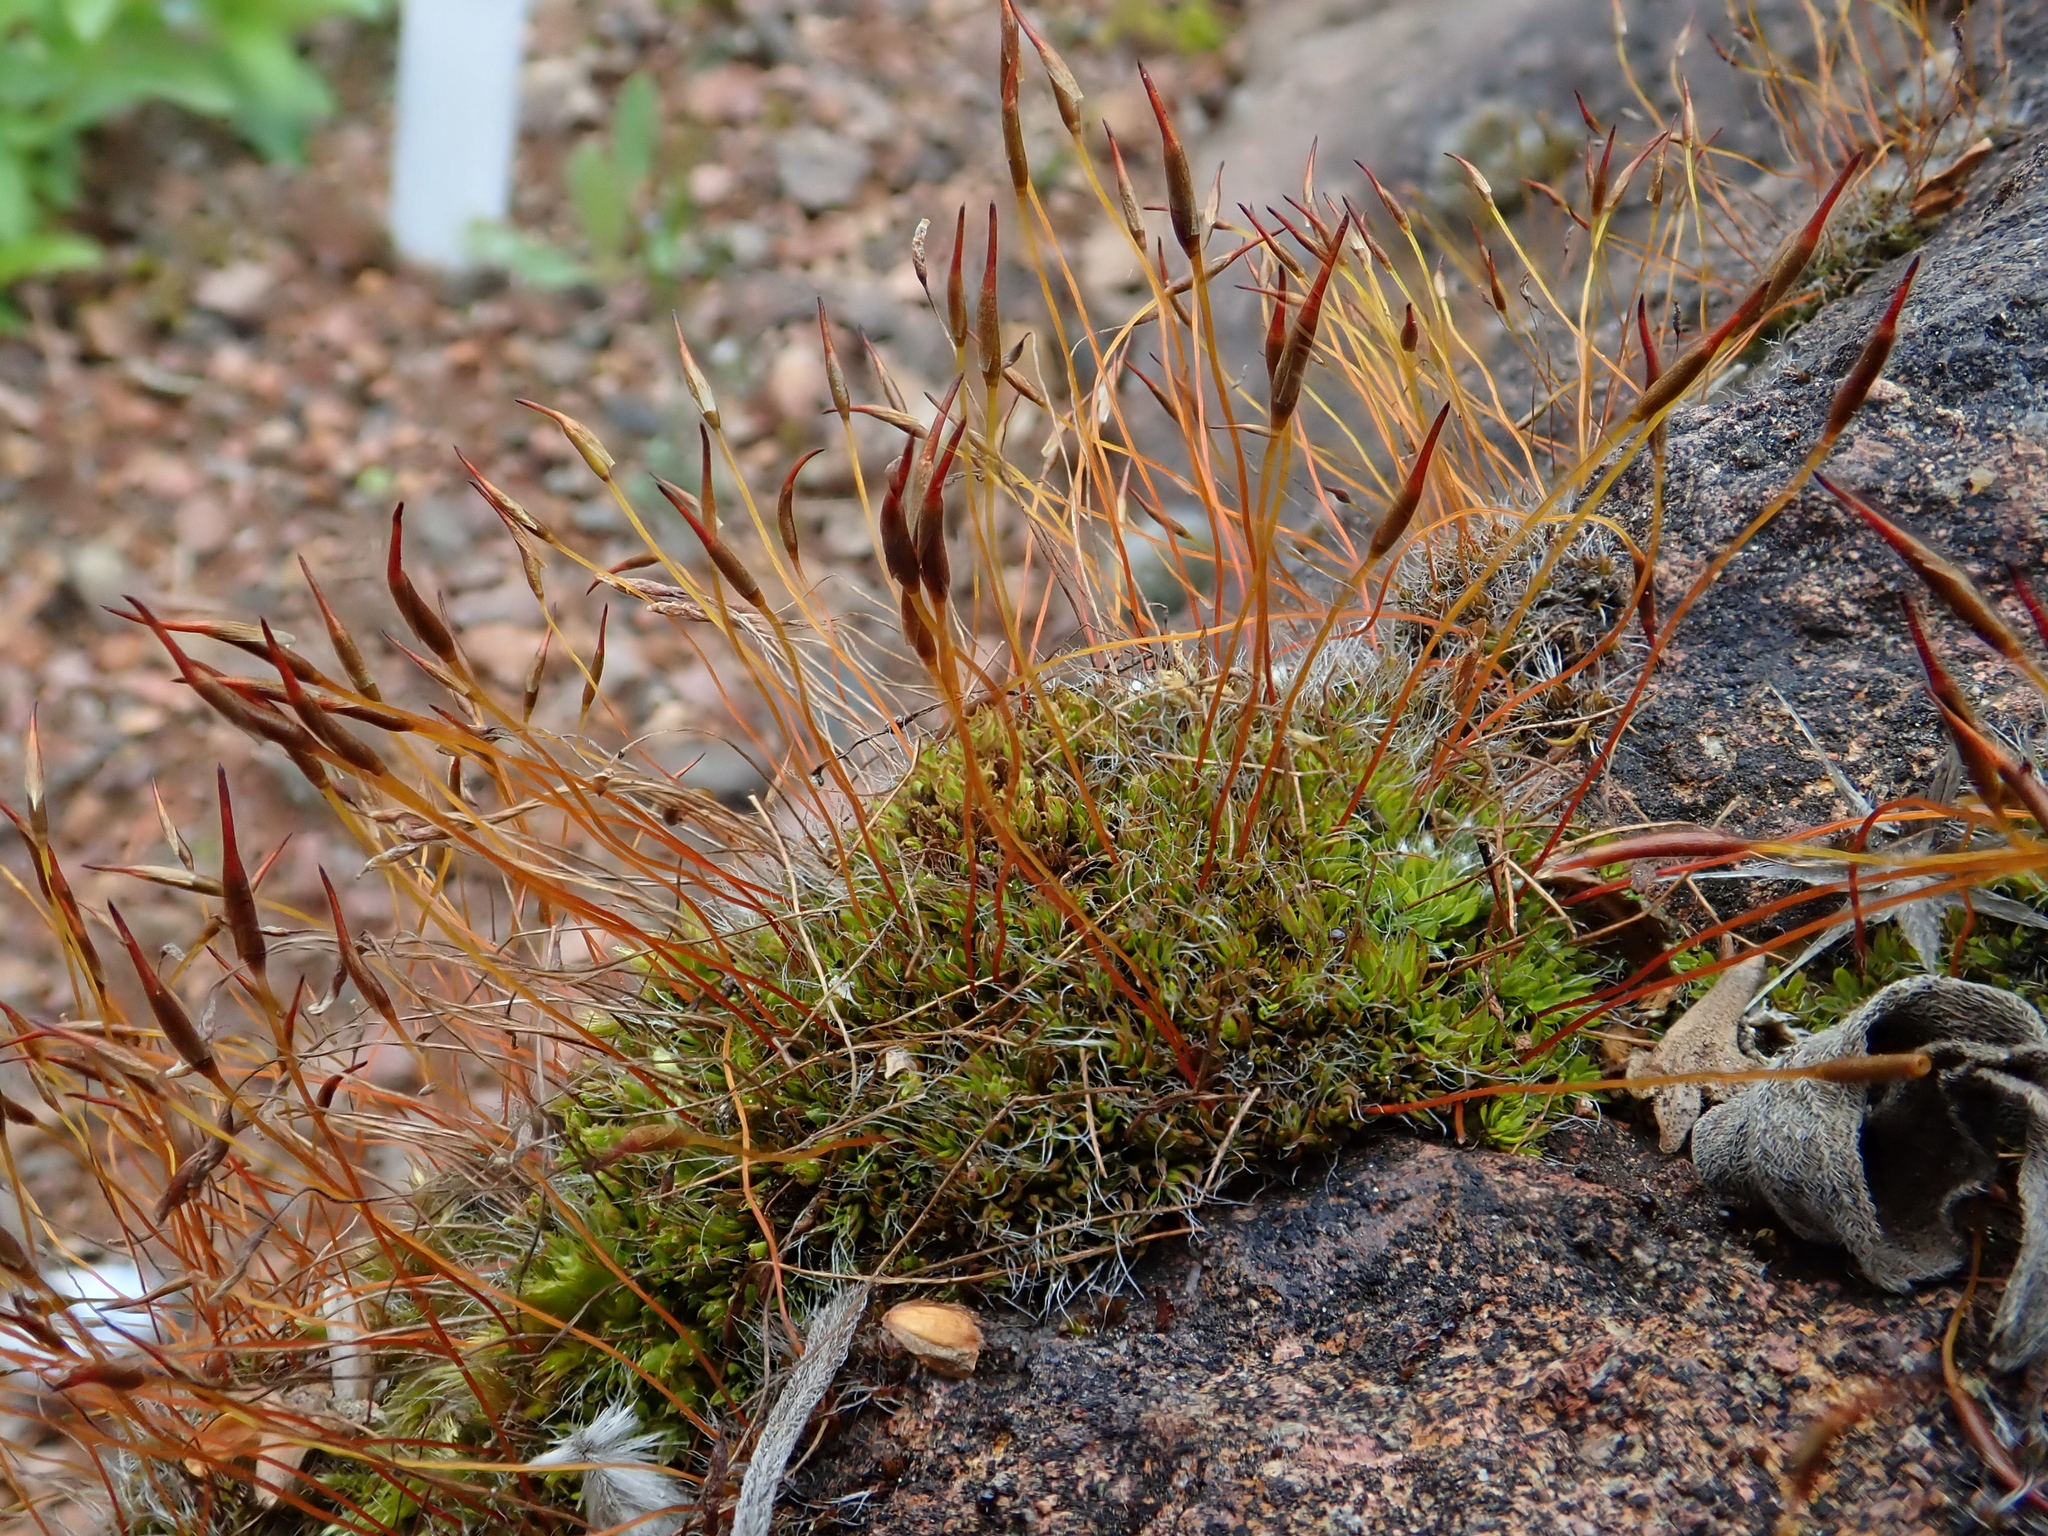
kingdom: Plantae
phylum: Bryophyta
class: Bryopsida
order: Pottiales
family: Pottiaceae
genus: Tortula
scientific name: Tortula muralis
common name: Wall screw-moss
